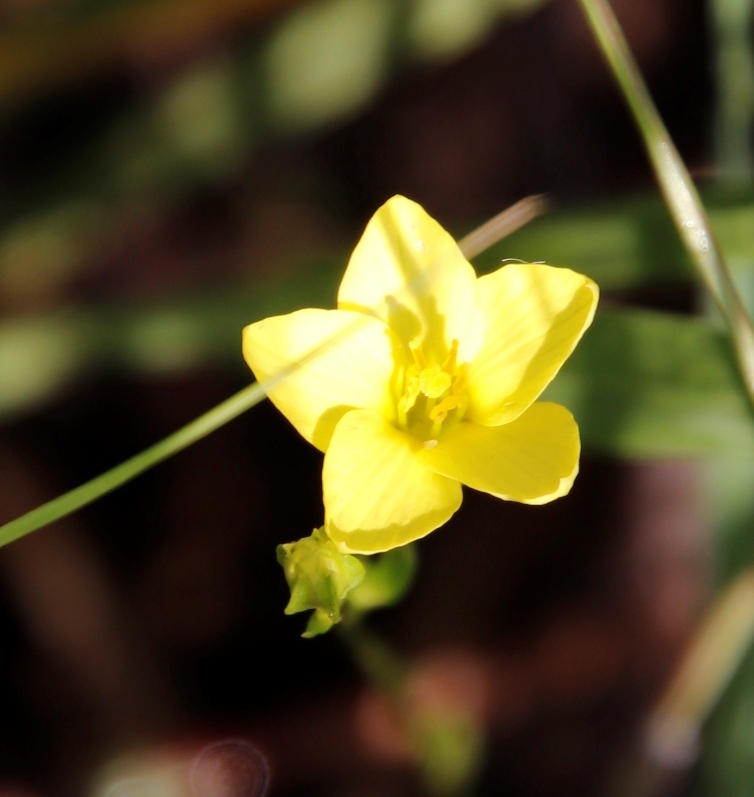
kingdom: Plantae
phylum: Tracheophyta
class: Magnoliopsida
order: Gentianales
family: Gentianaceae
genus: Sebaea
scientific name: Sebaea exigua
